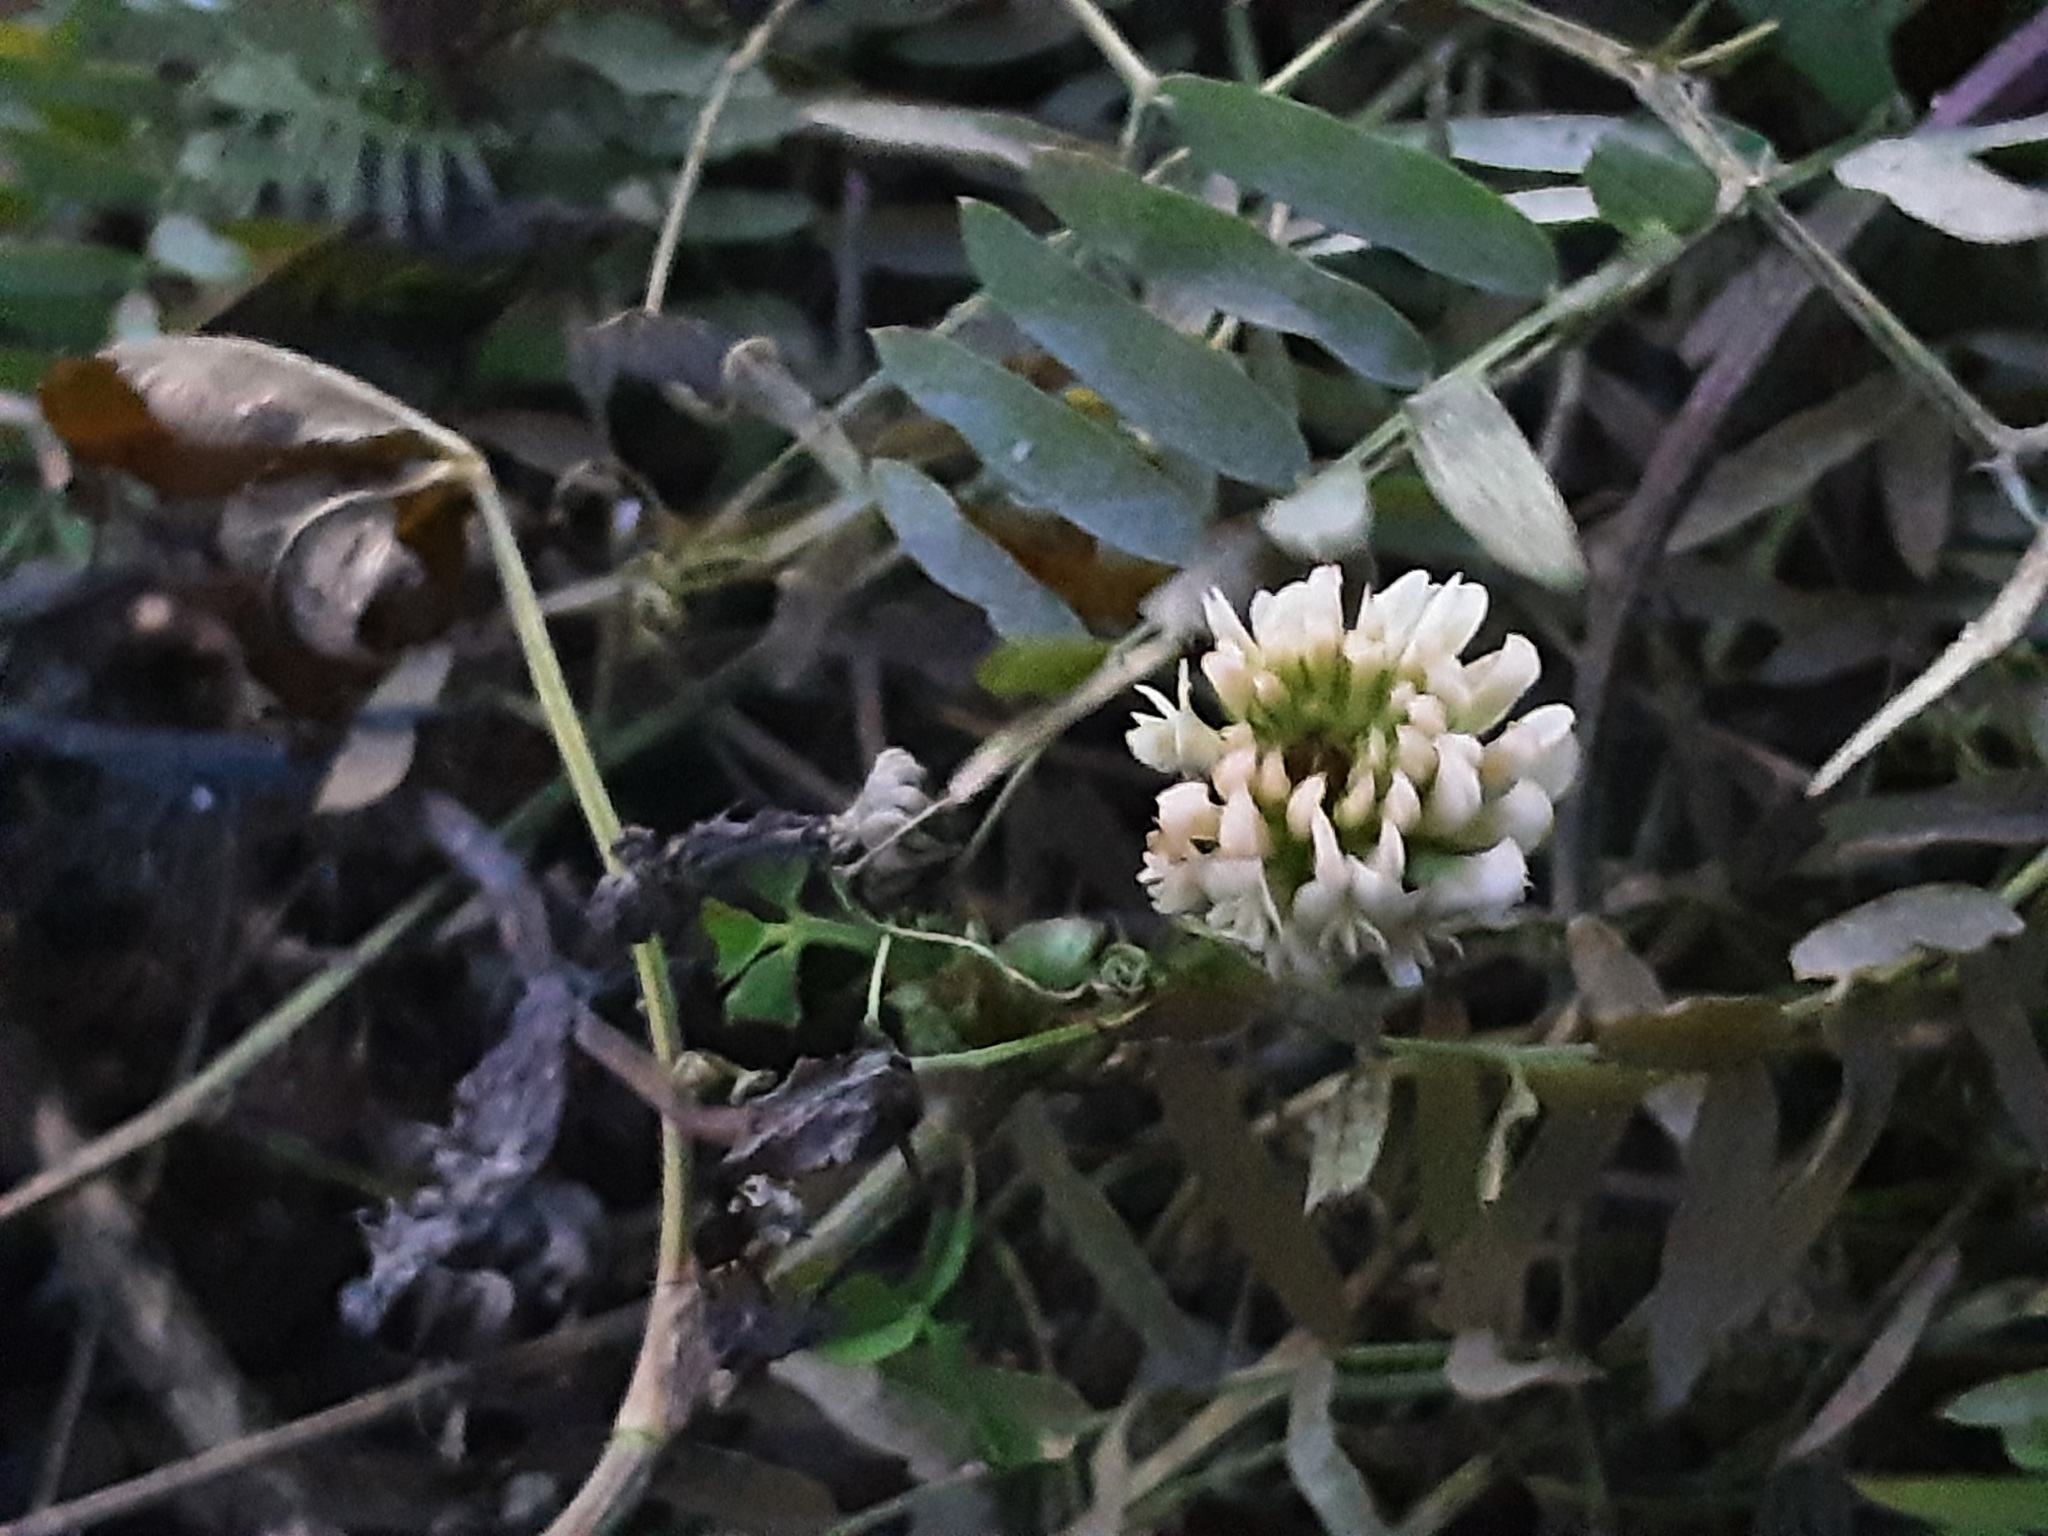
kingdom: Plantae
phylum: Tracheophyta
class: Magnoliopsida
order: Fabales
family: Fabaceae
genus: Vicia
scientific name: Vicia cracca
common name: Bird vetch
